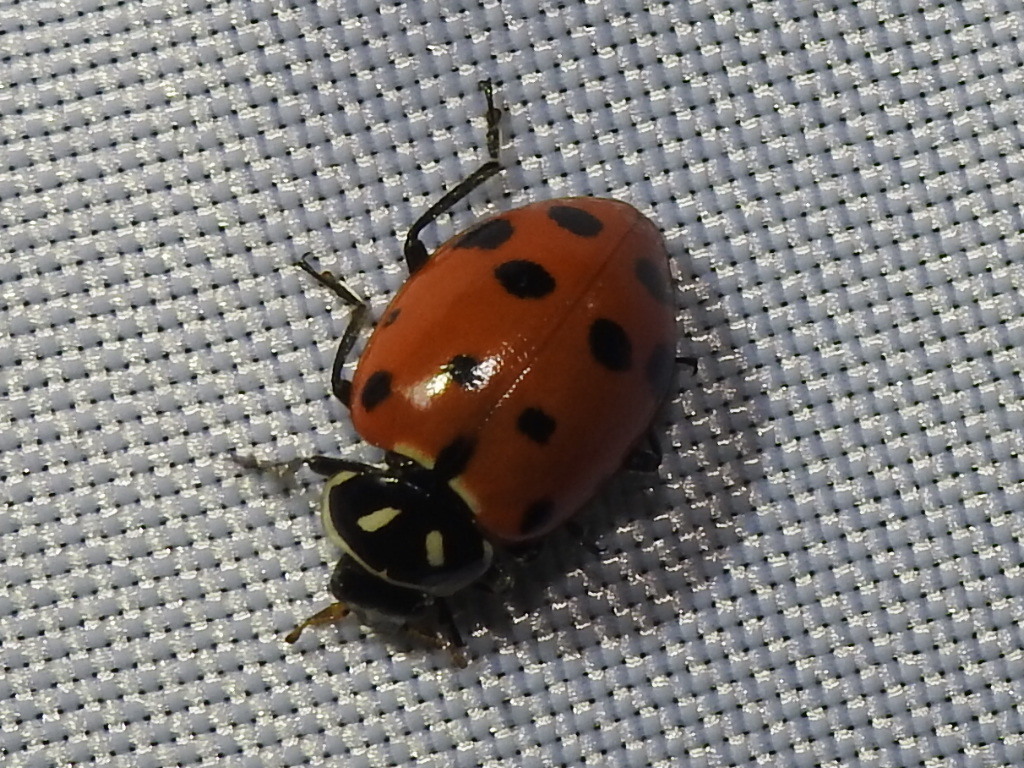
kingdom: Animalia
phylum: Arthropoda
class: Insecta
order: Coleoptera
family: Coccinellidae
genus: Hippodamia
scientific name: Hippodamia convergens
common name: Convergent lady beetle
